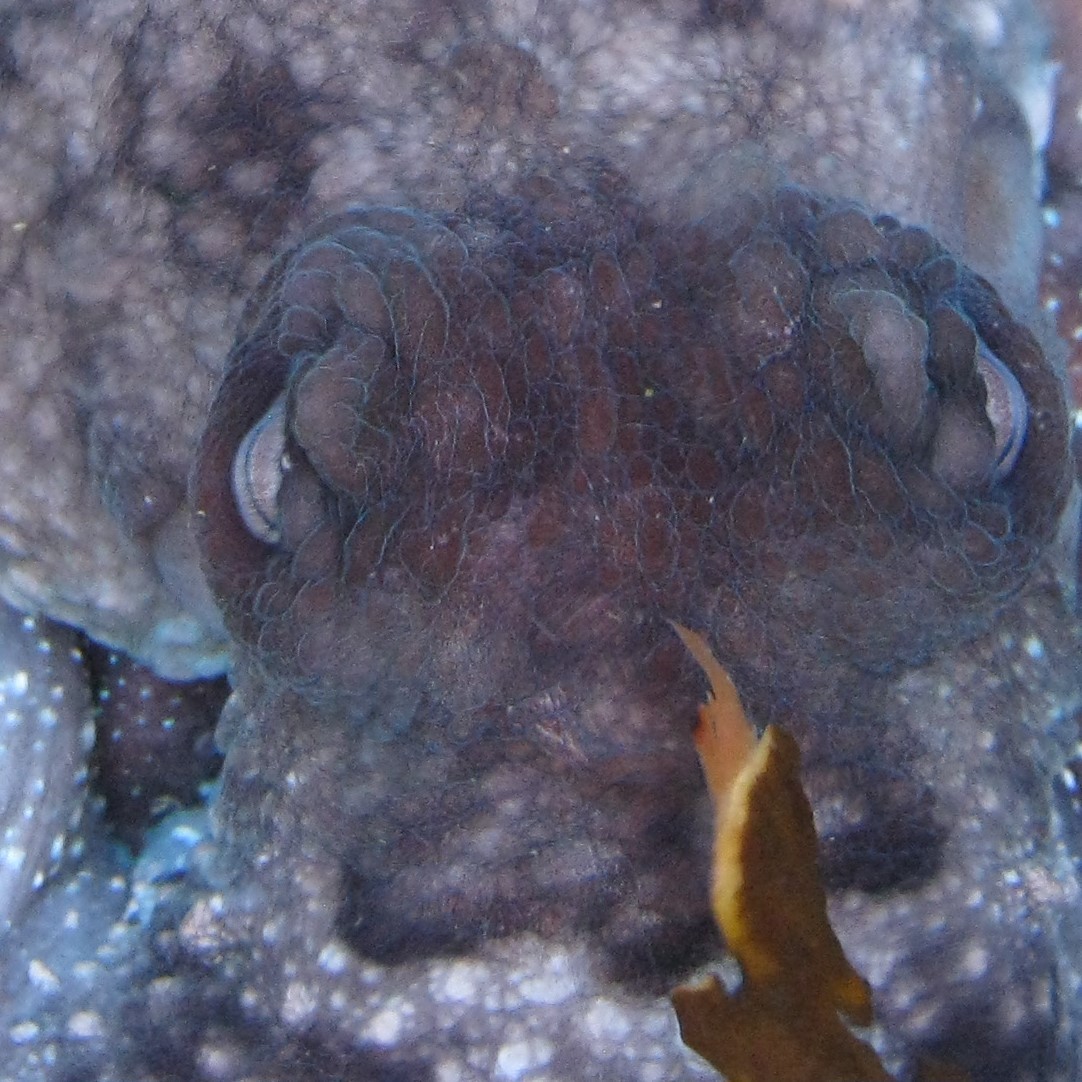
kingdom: Animalia
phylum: Mollusca
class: Cephalopoda
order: Octopoda
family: Octopodidae
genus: Macroctopus
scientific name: Macroctopus maorum
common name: Maori octopus
